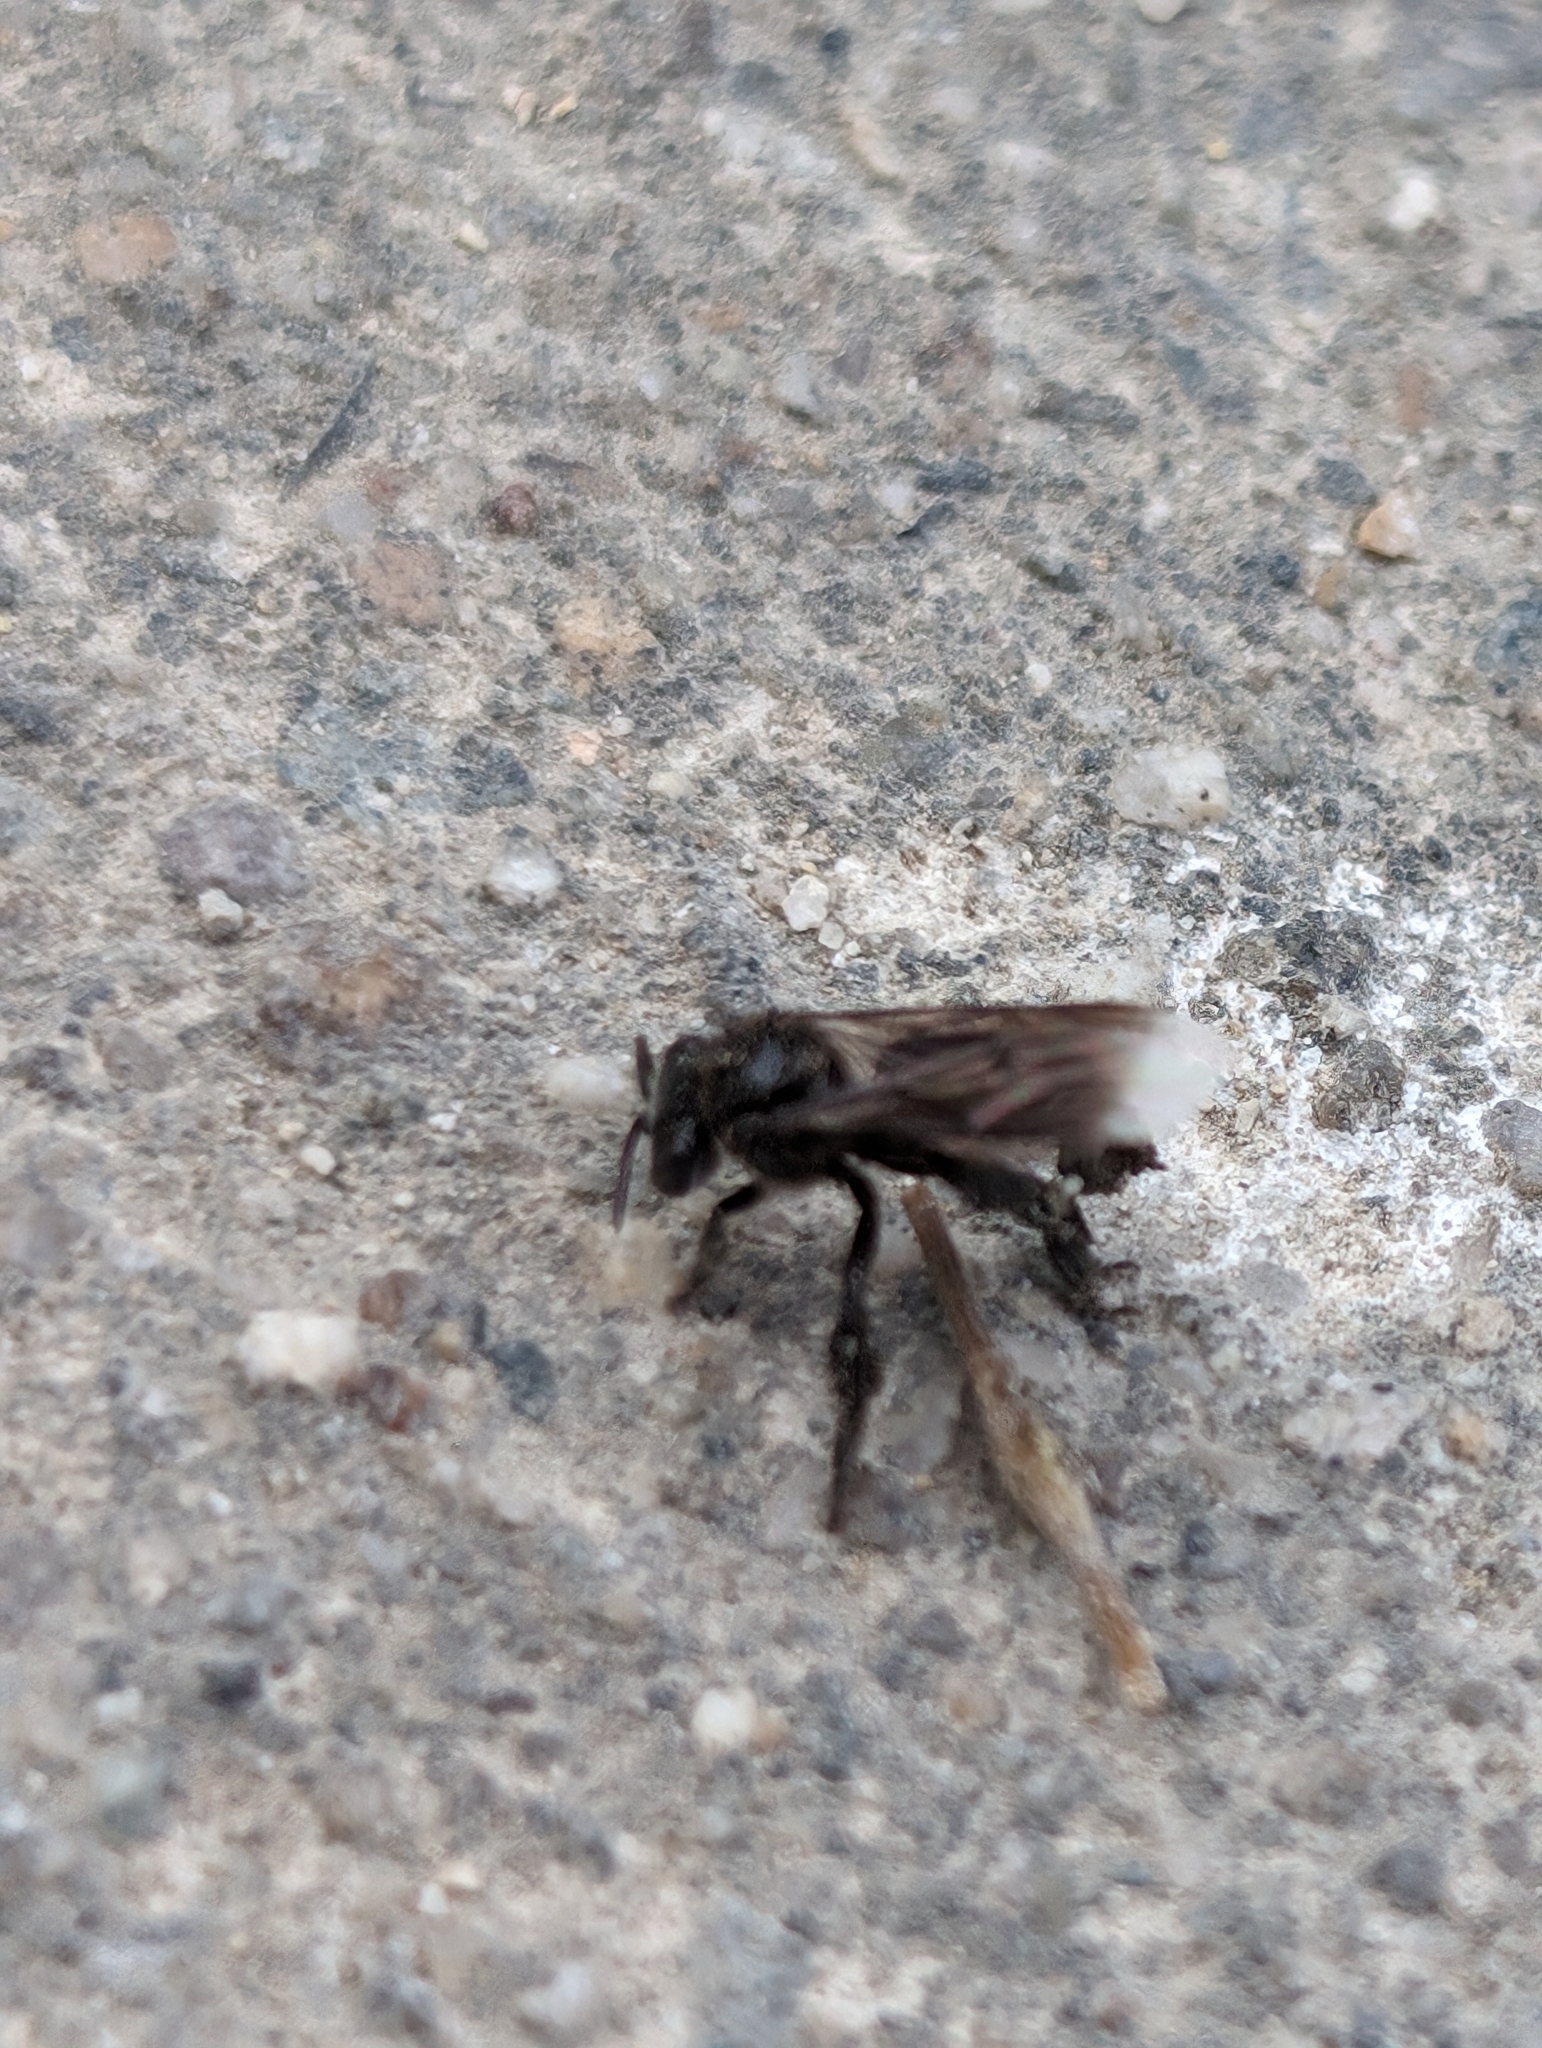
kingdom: Animalia
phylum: Arthropoda
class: Insecta
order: Hymenoptera
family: Apidae
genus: Frieseomelitta
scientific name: Frieseomelitta nigra
